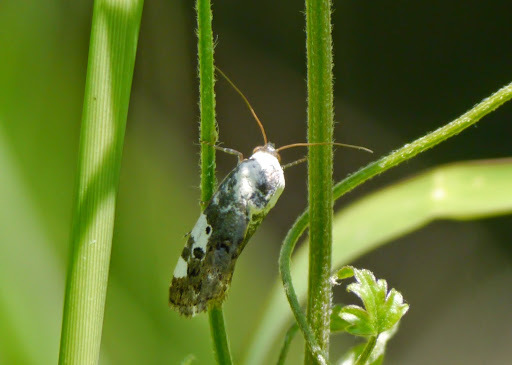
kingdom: Animalia
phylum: Arthropoda
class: Insecta
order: Lepidoptera
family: Noctuidae
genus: Acontia
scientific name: Acontia aprica
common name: Nun
